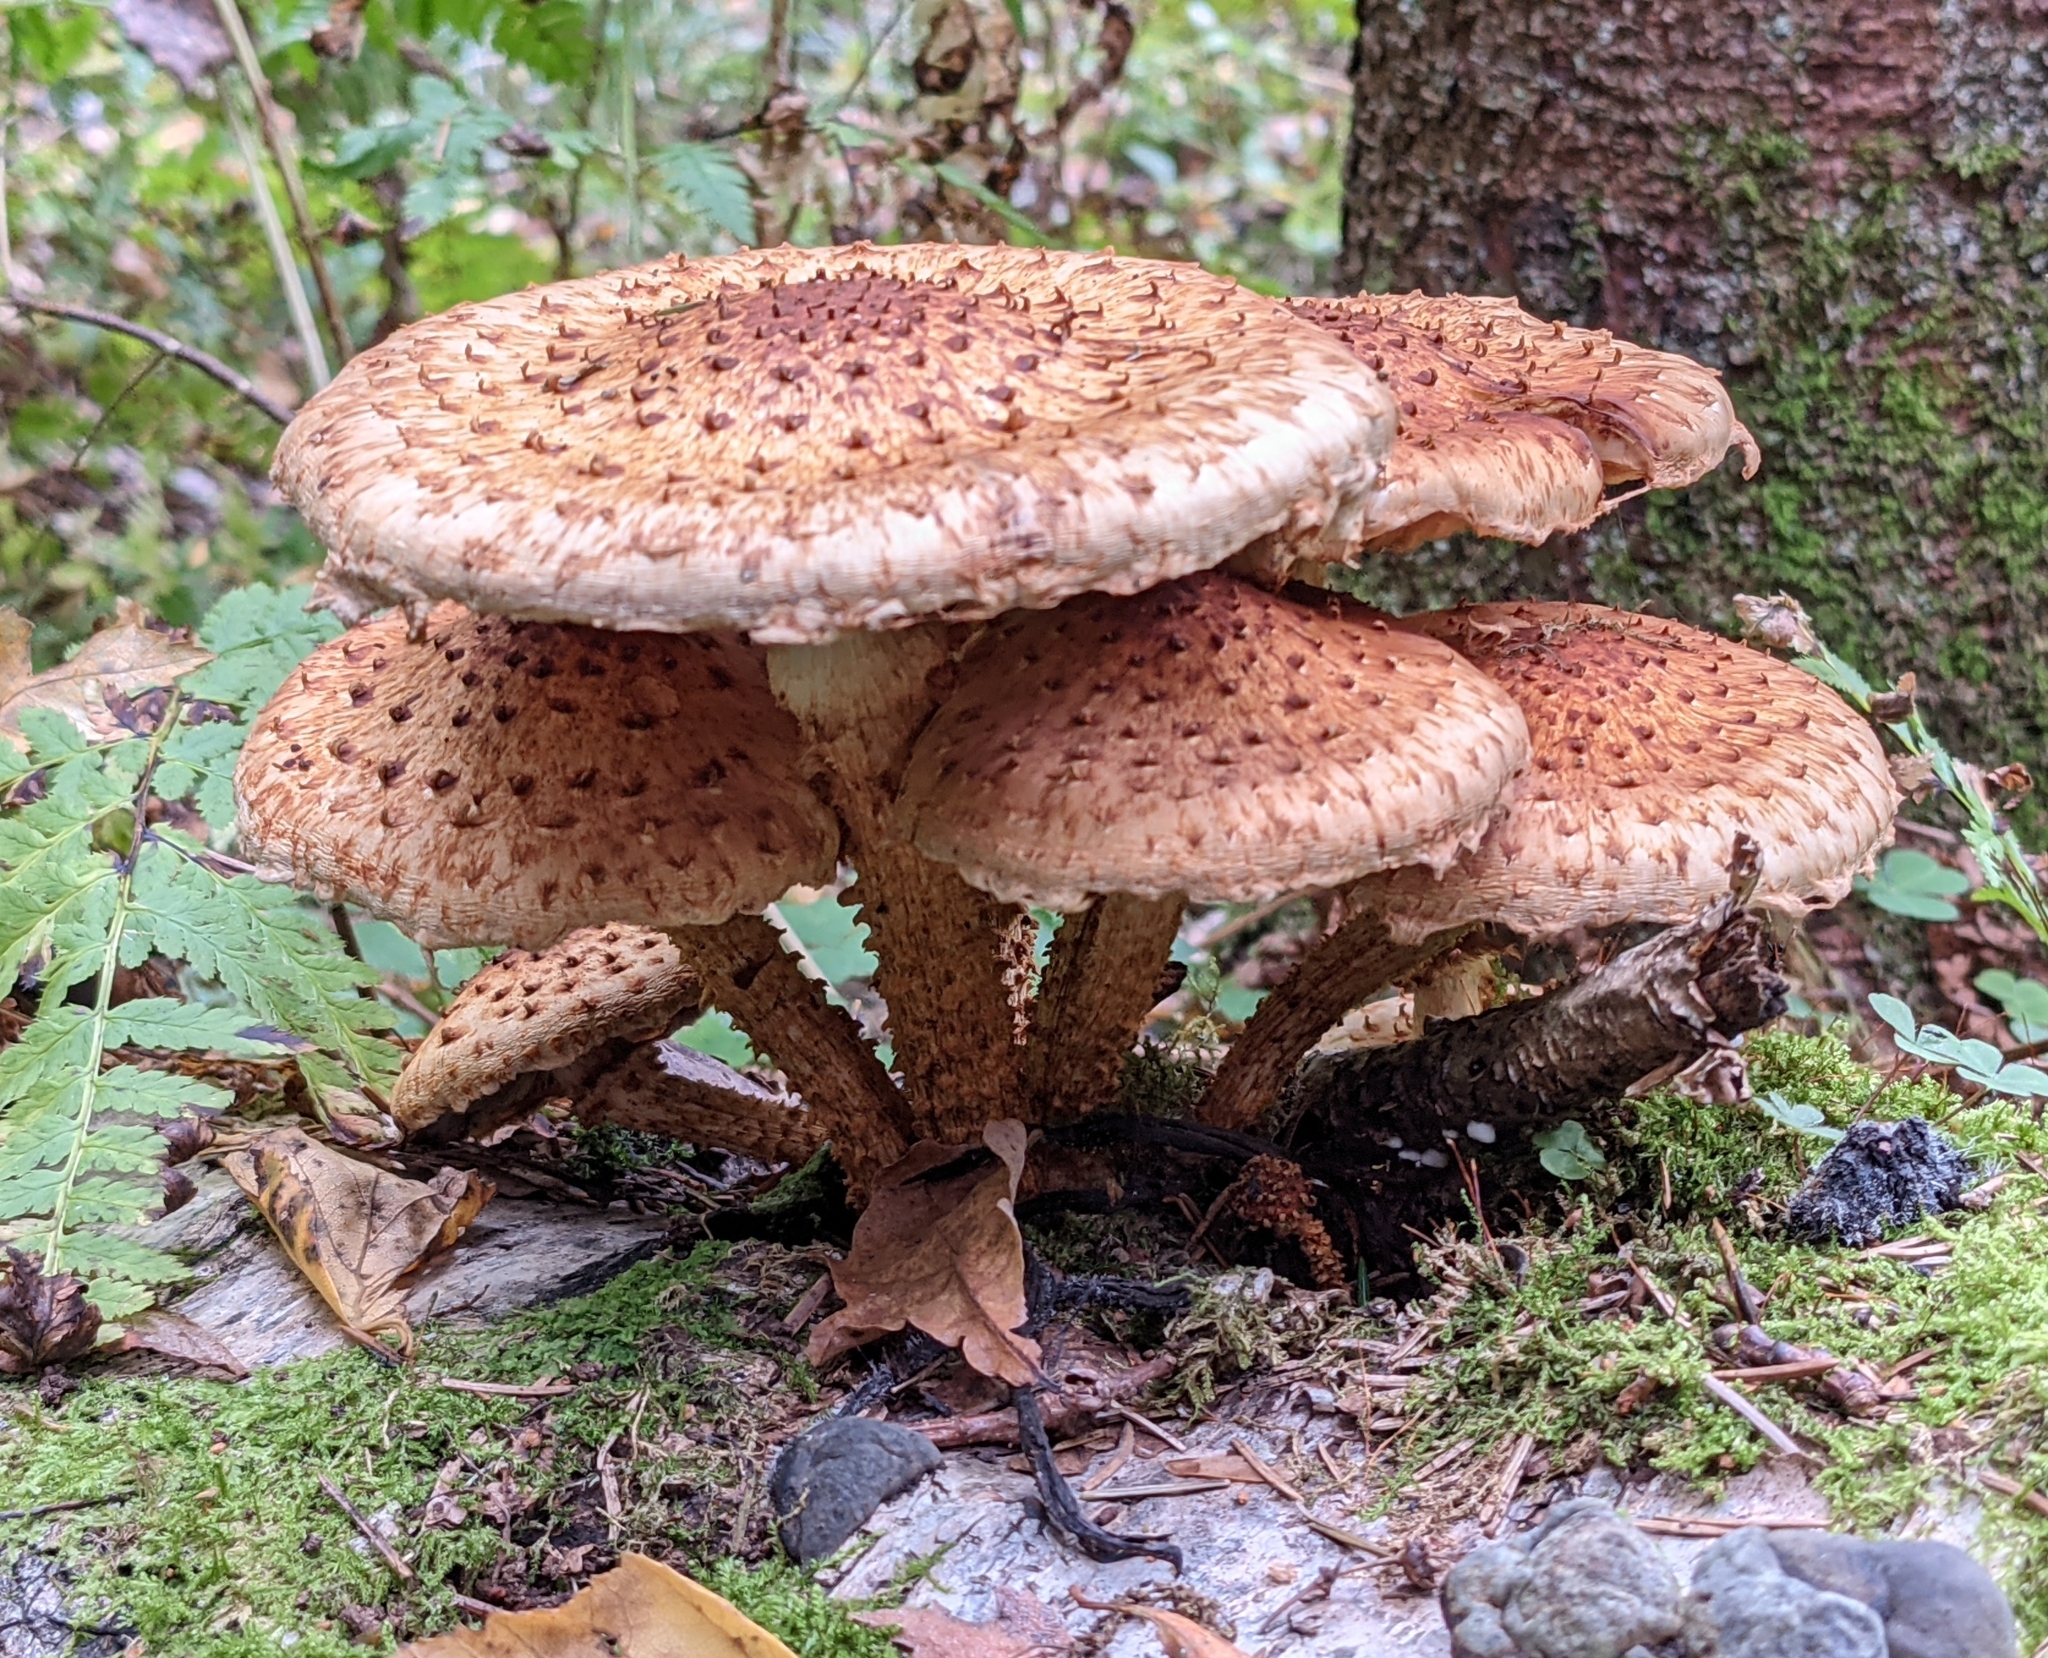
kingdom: Fungi
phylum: Basidiomycota
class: Agaricomycetes
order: Agaricales
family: Strophariaceae
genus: Pholiota
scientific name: Pholiota squarrosa
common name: Shaggy pholiota
